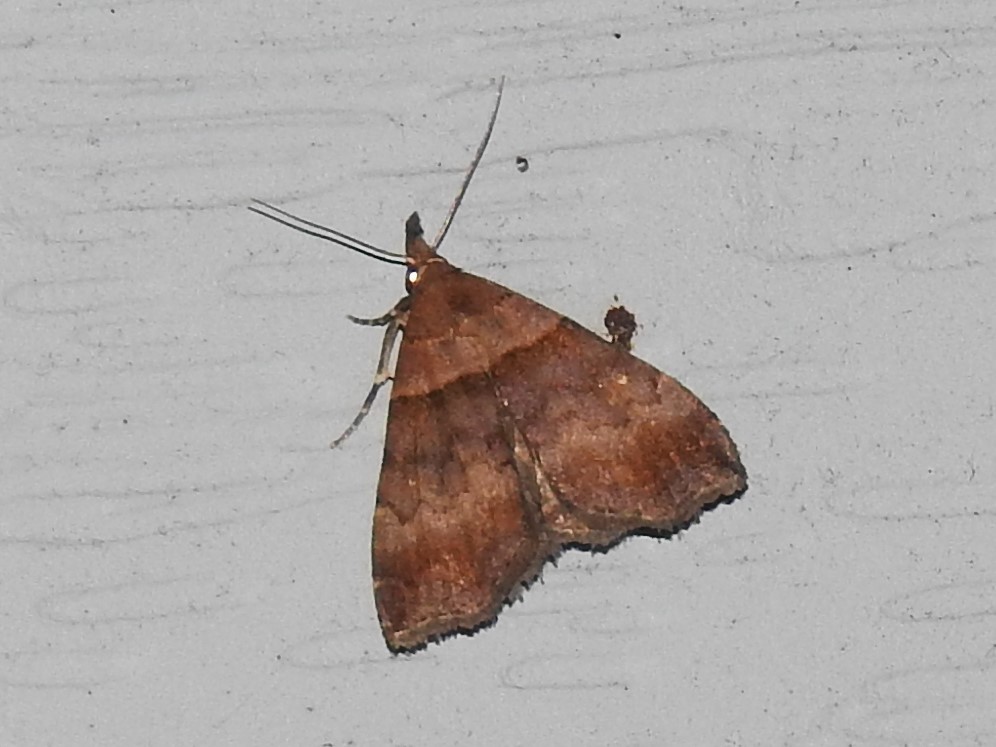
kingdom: Animalia
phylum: Arthropoda
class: Insecta
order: Lepidoptera
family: Erebidae
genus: Lascoria
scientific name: Lascoria ambigualis
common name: Ambiguous moth
